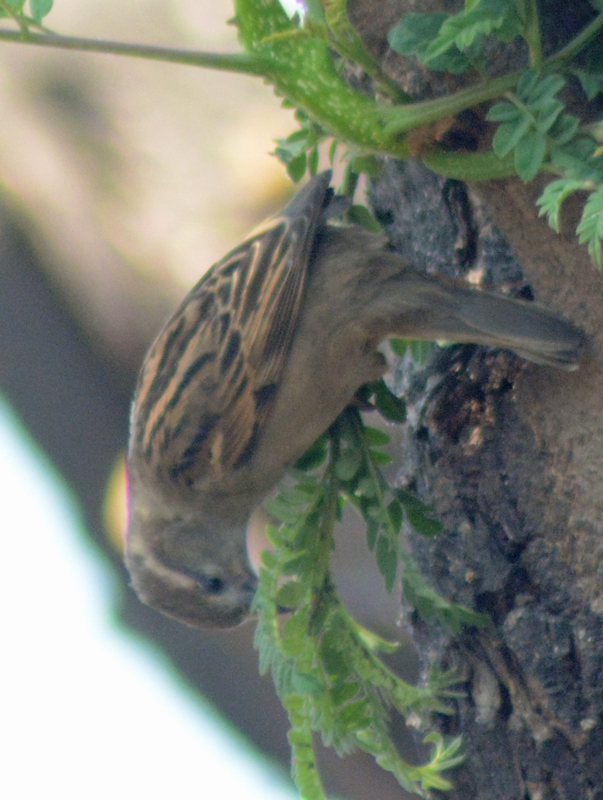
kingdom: Animalia
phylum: Chordata
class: Aves
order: Passeriformes
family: Passeridae
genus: Passer
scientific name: Passer domesticus
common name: House sparrow
